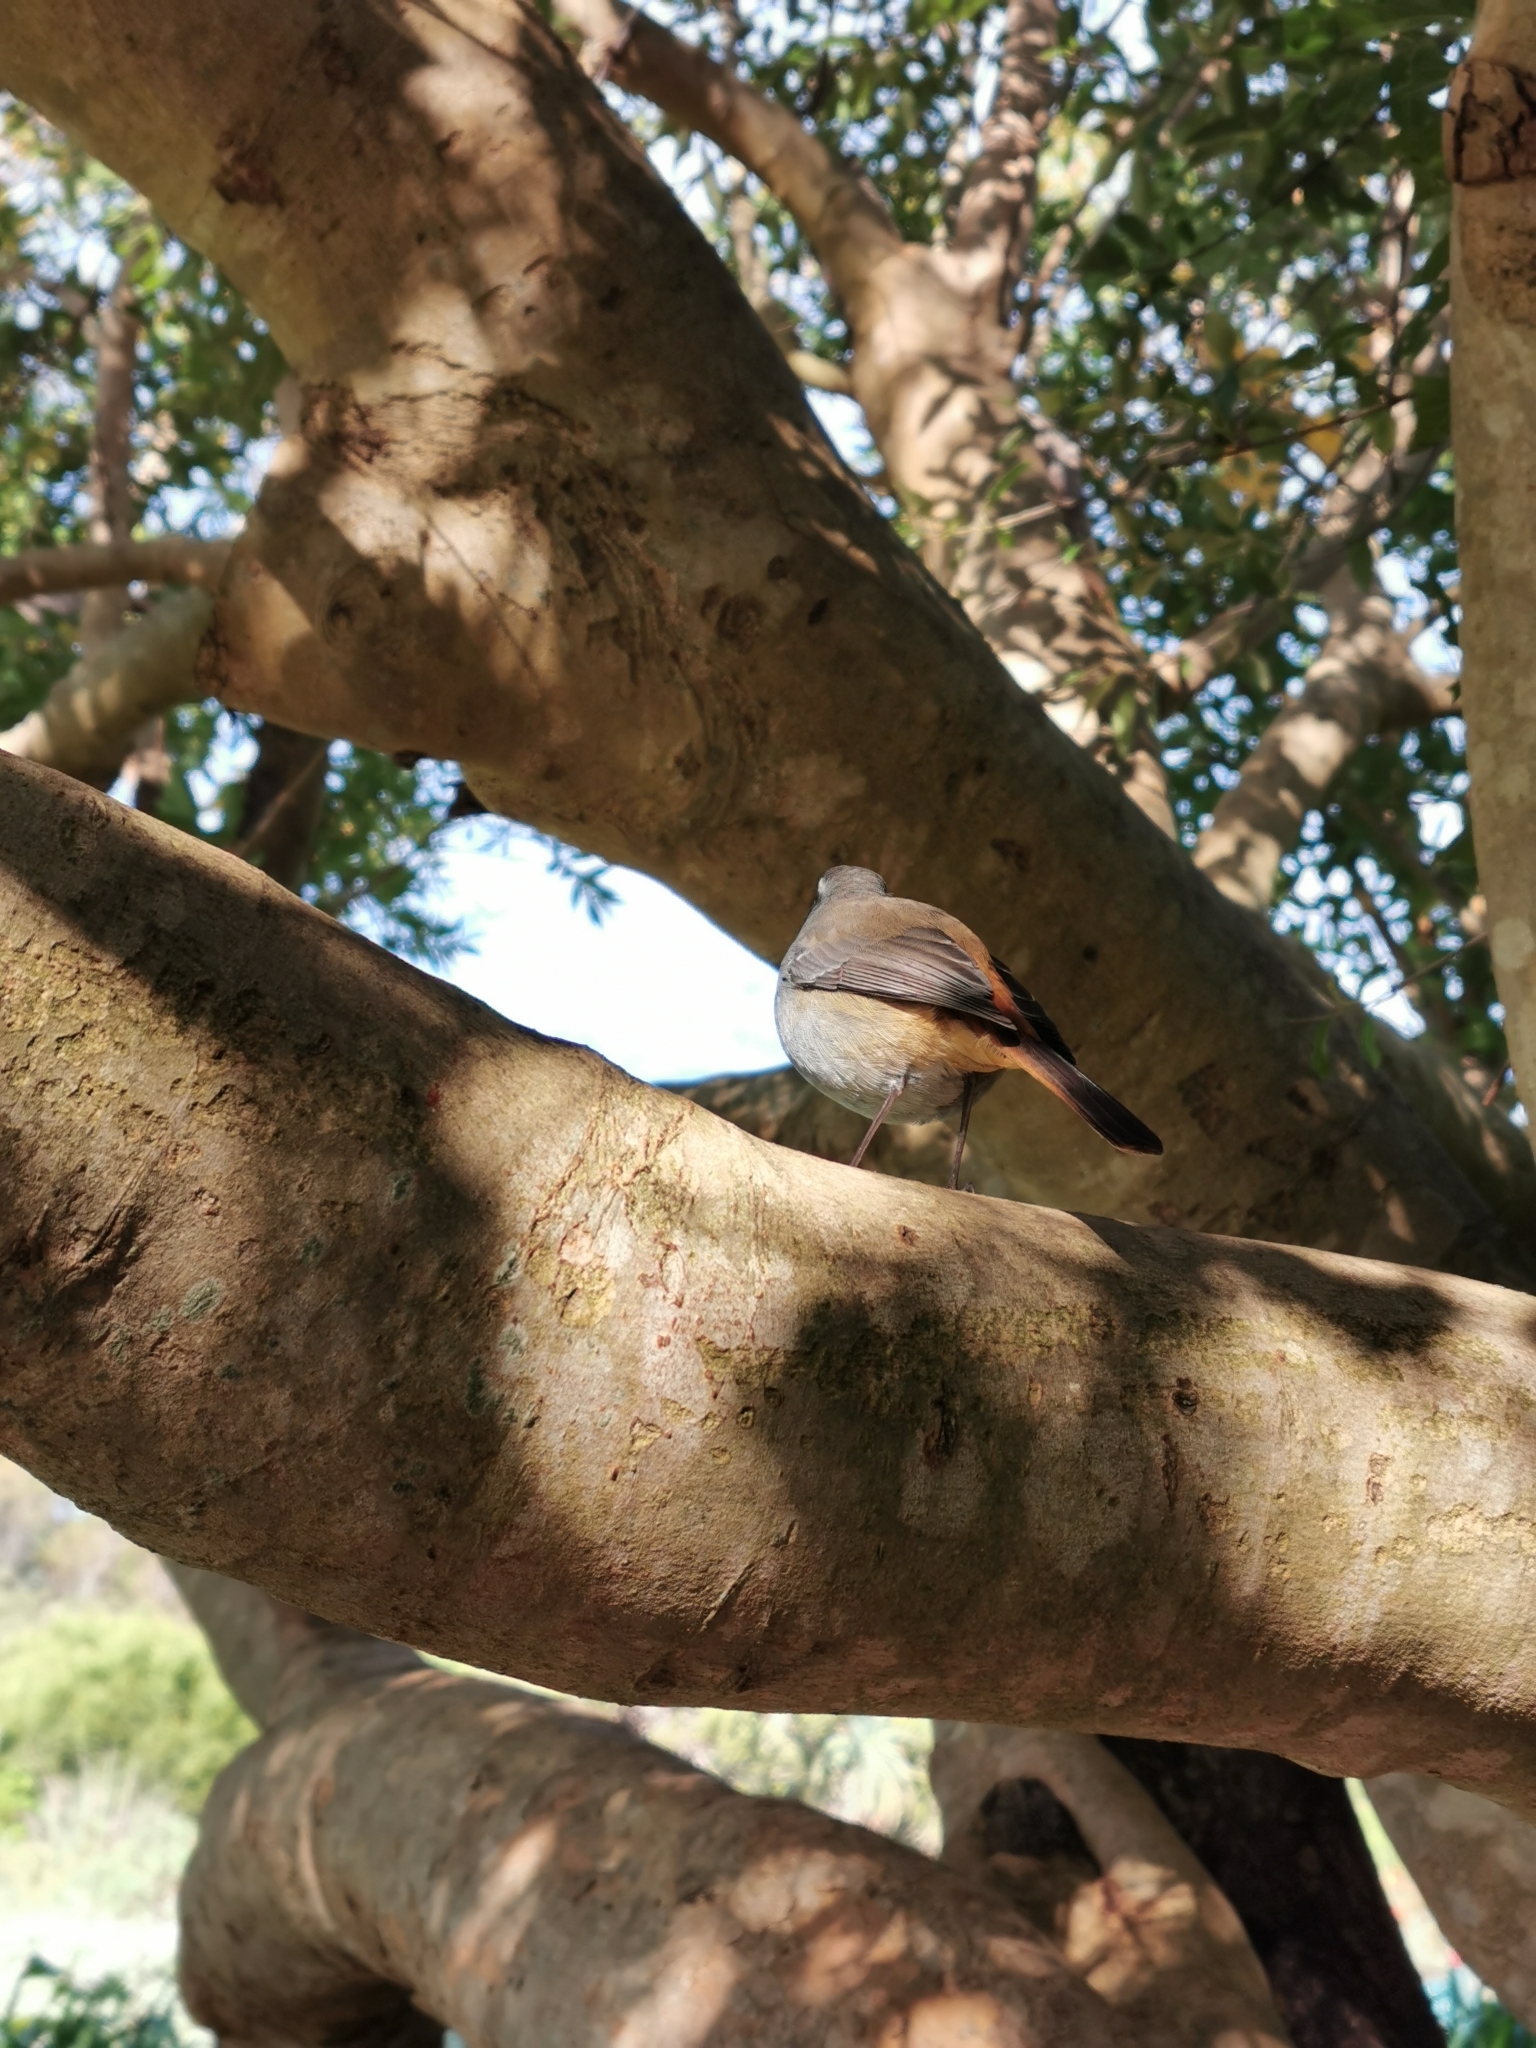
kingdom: Animalia
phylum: Chordata
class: Aves
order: Passeriformes
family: Muscicapidae
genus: Cossypha
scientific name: Cossypha caffra
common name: Cape robin-chat
